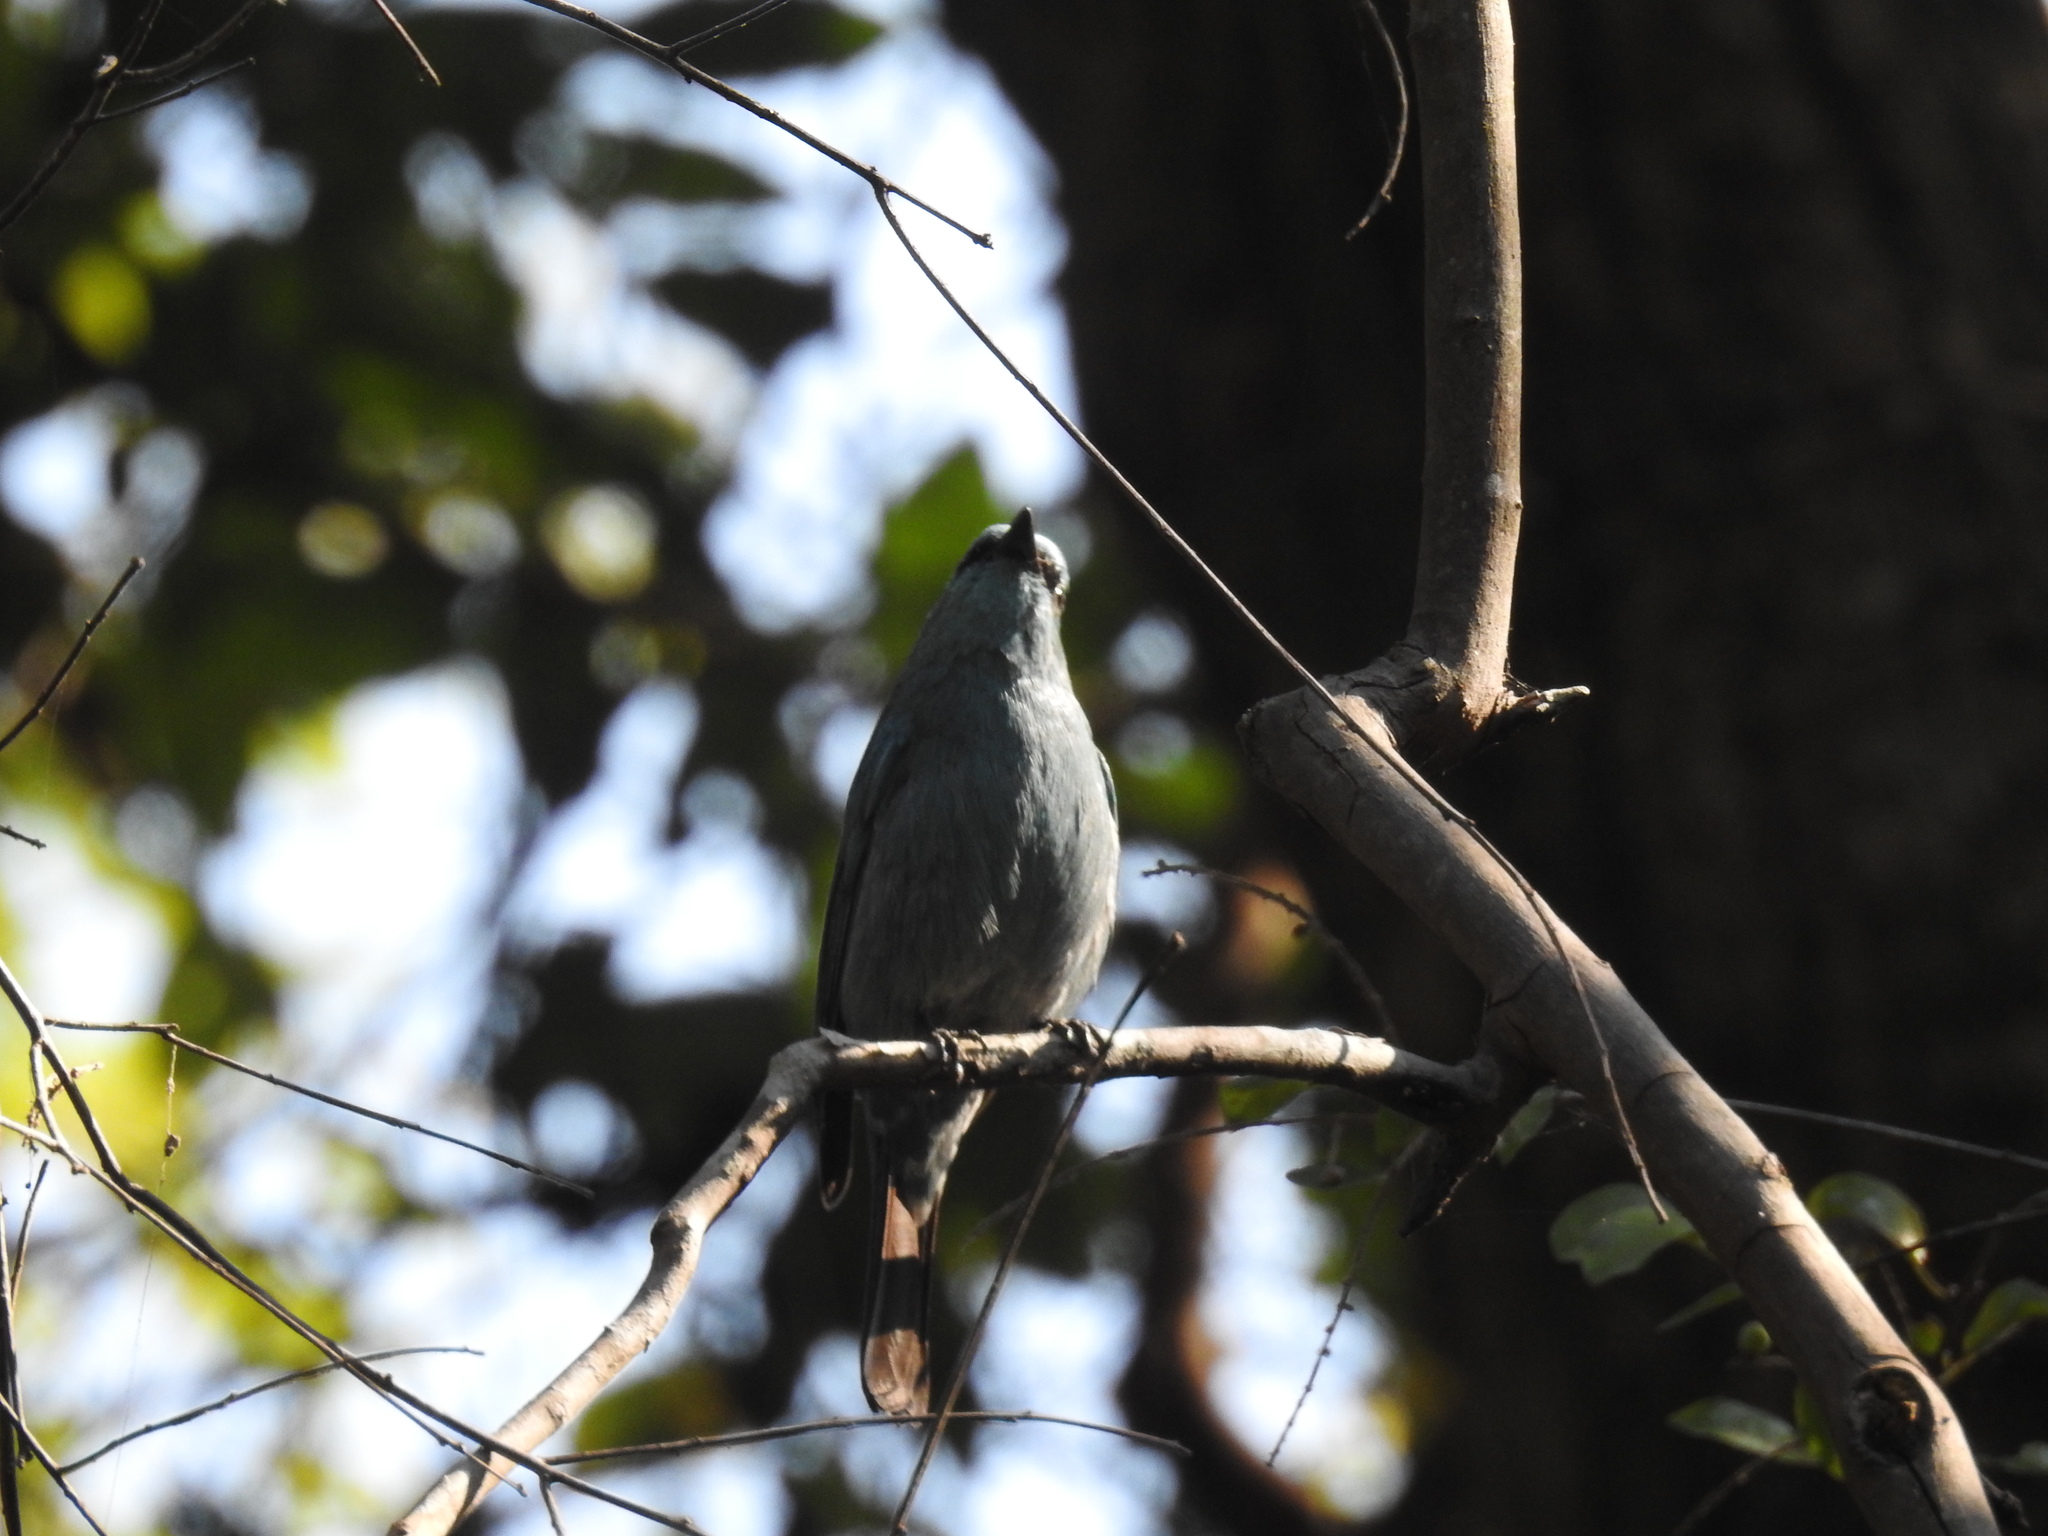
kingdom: Animalia
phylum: Chordata
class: Aves
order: Passeriformes
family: Campephagidae
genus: Coracina
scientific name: Coracina melaschistos
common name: Black-winged cuckooshrike
